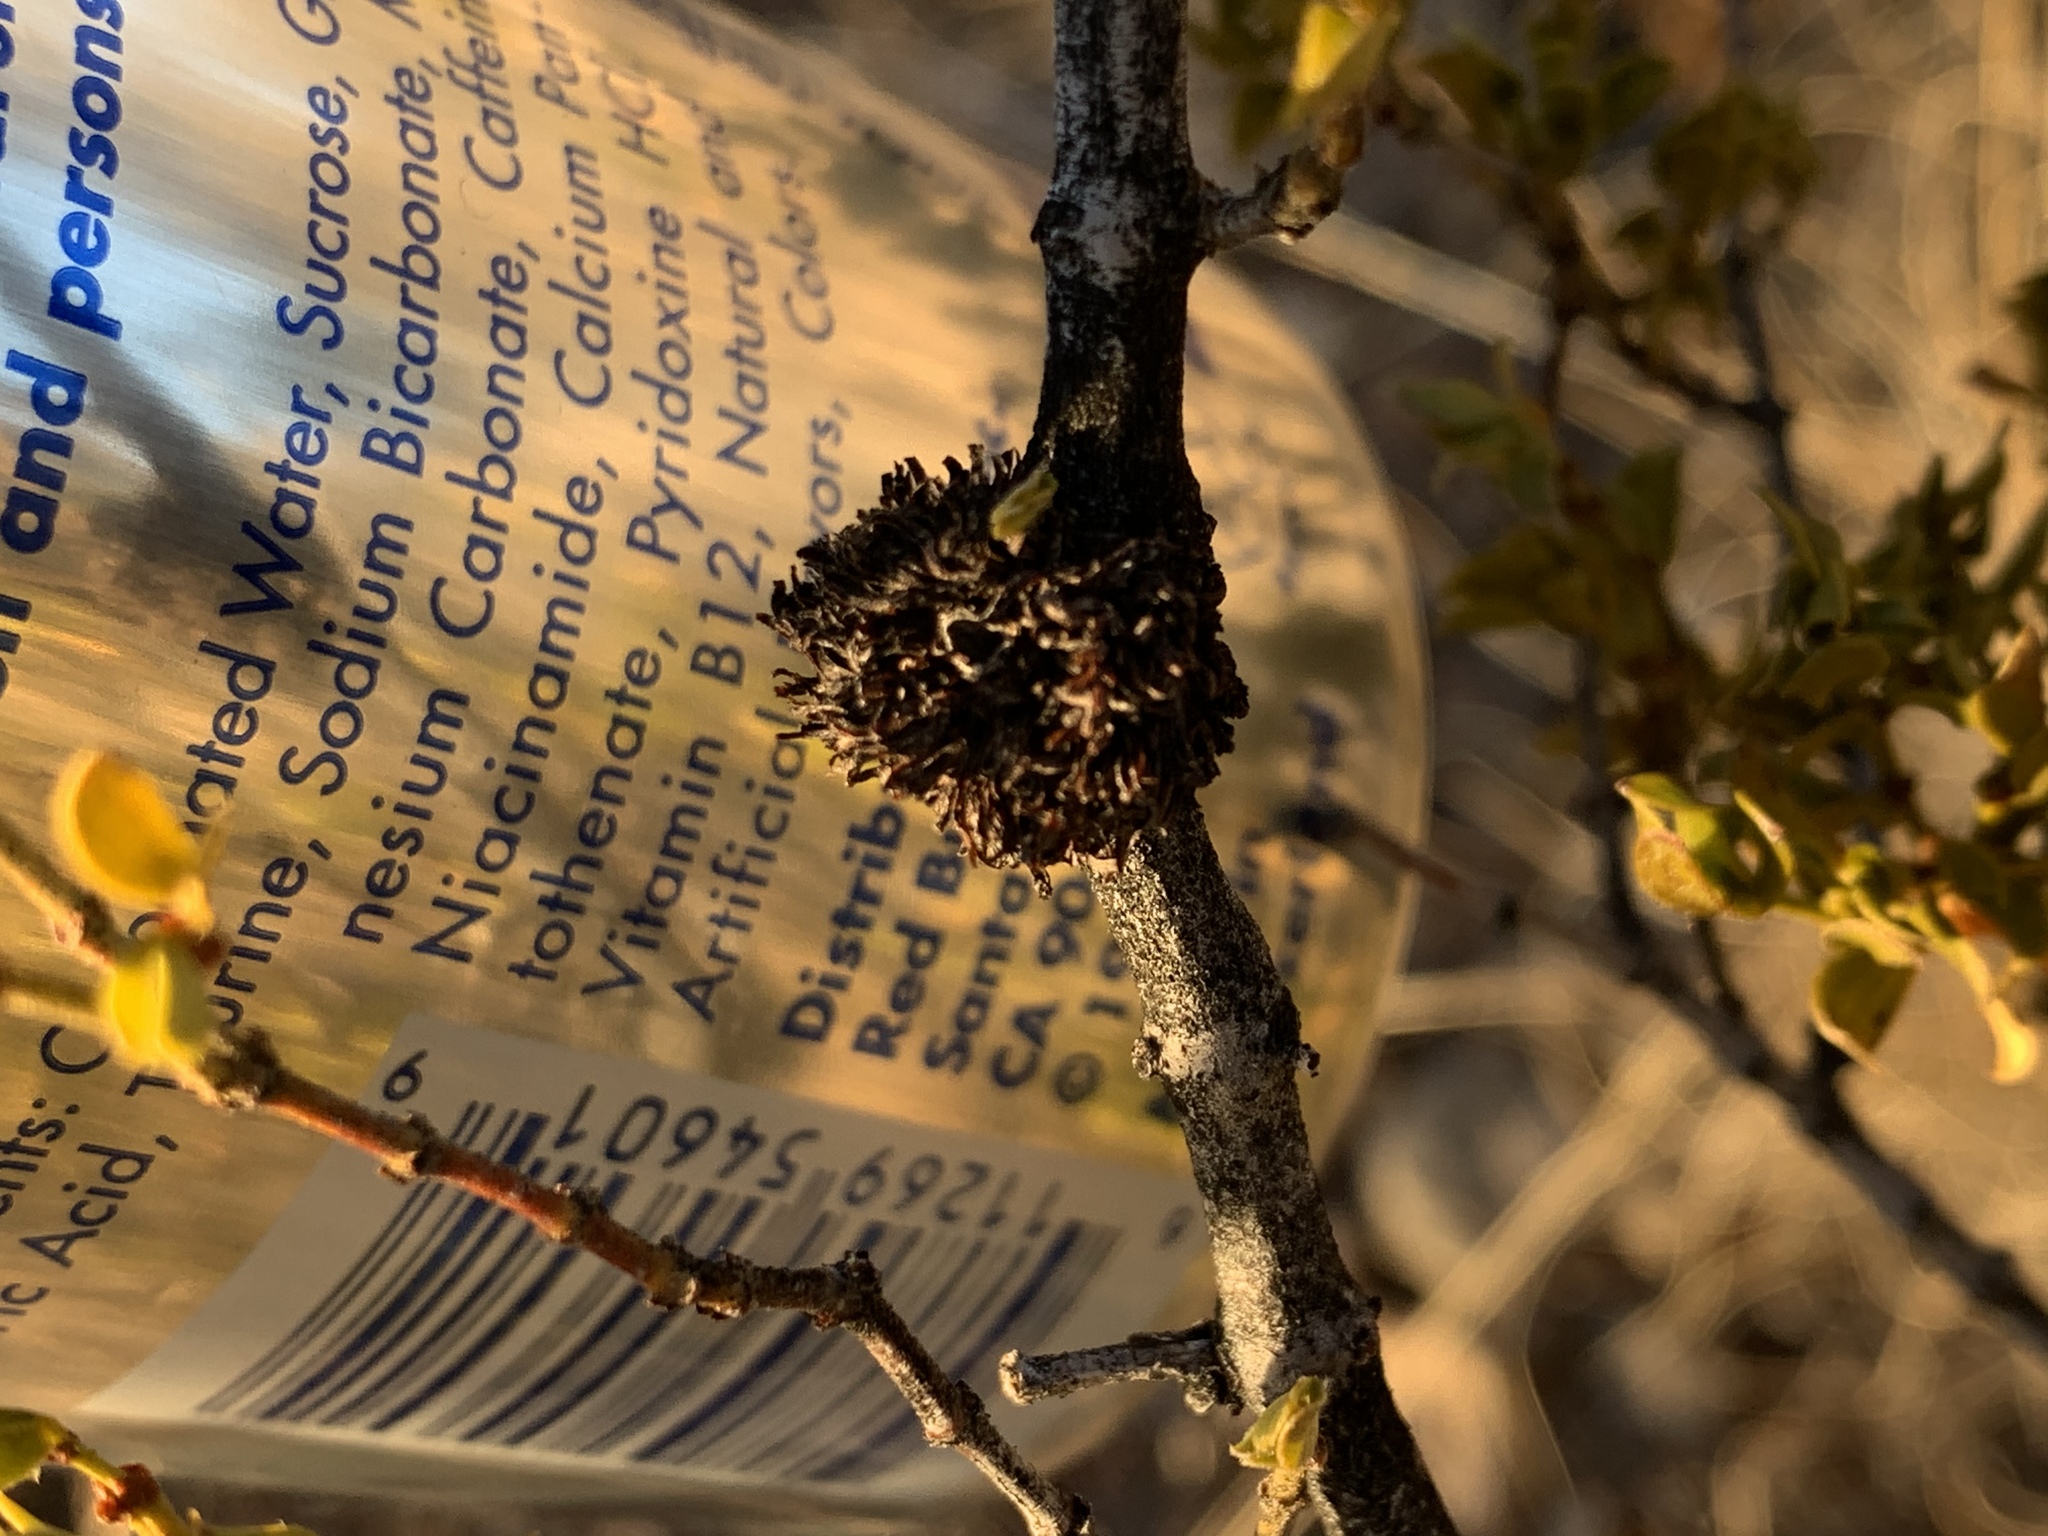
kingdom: Animalia
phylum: Arthropoda
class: Insecta
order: Diptera
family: Cecidomyiidae
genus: Asphondylia
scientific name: Asphondylia auripila
